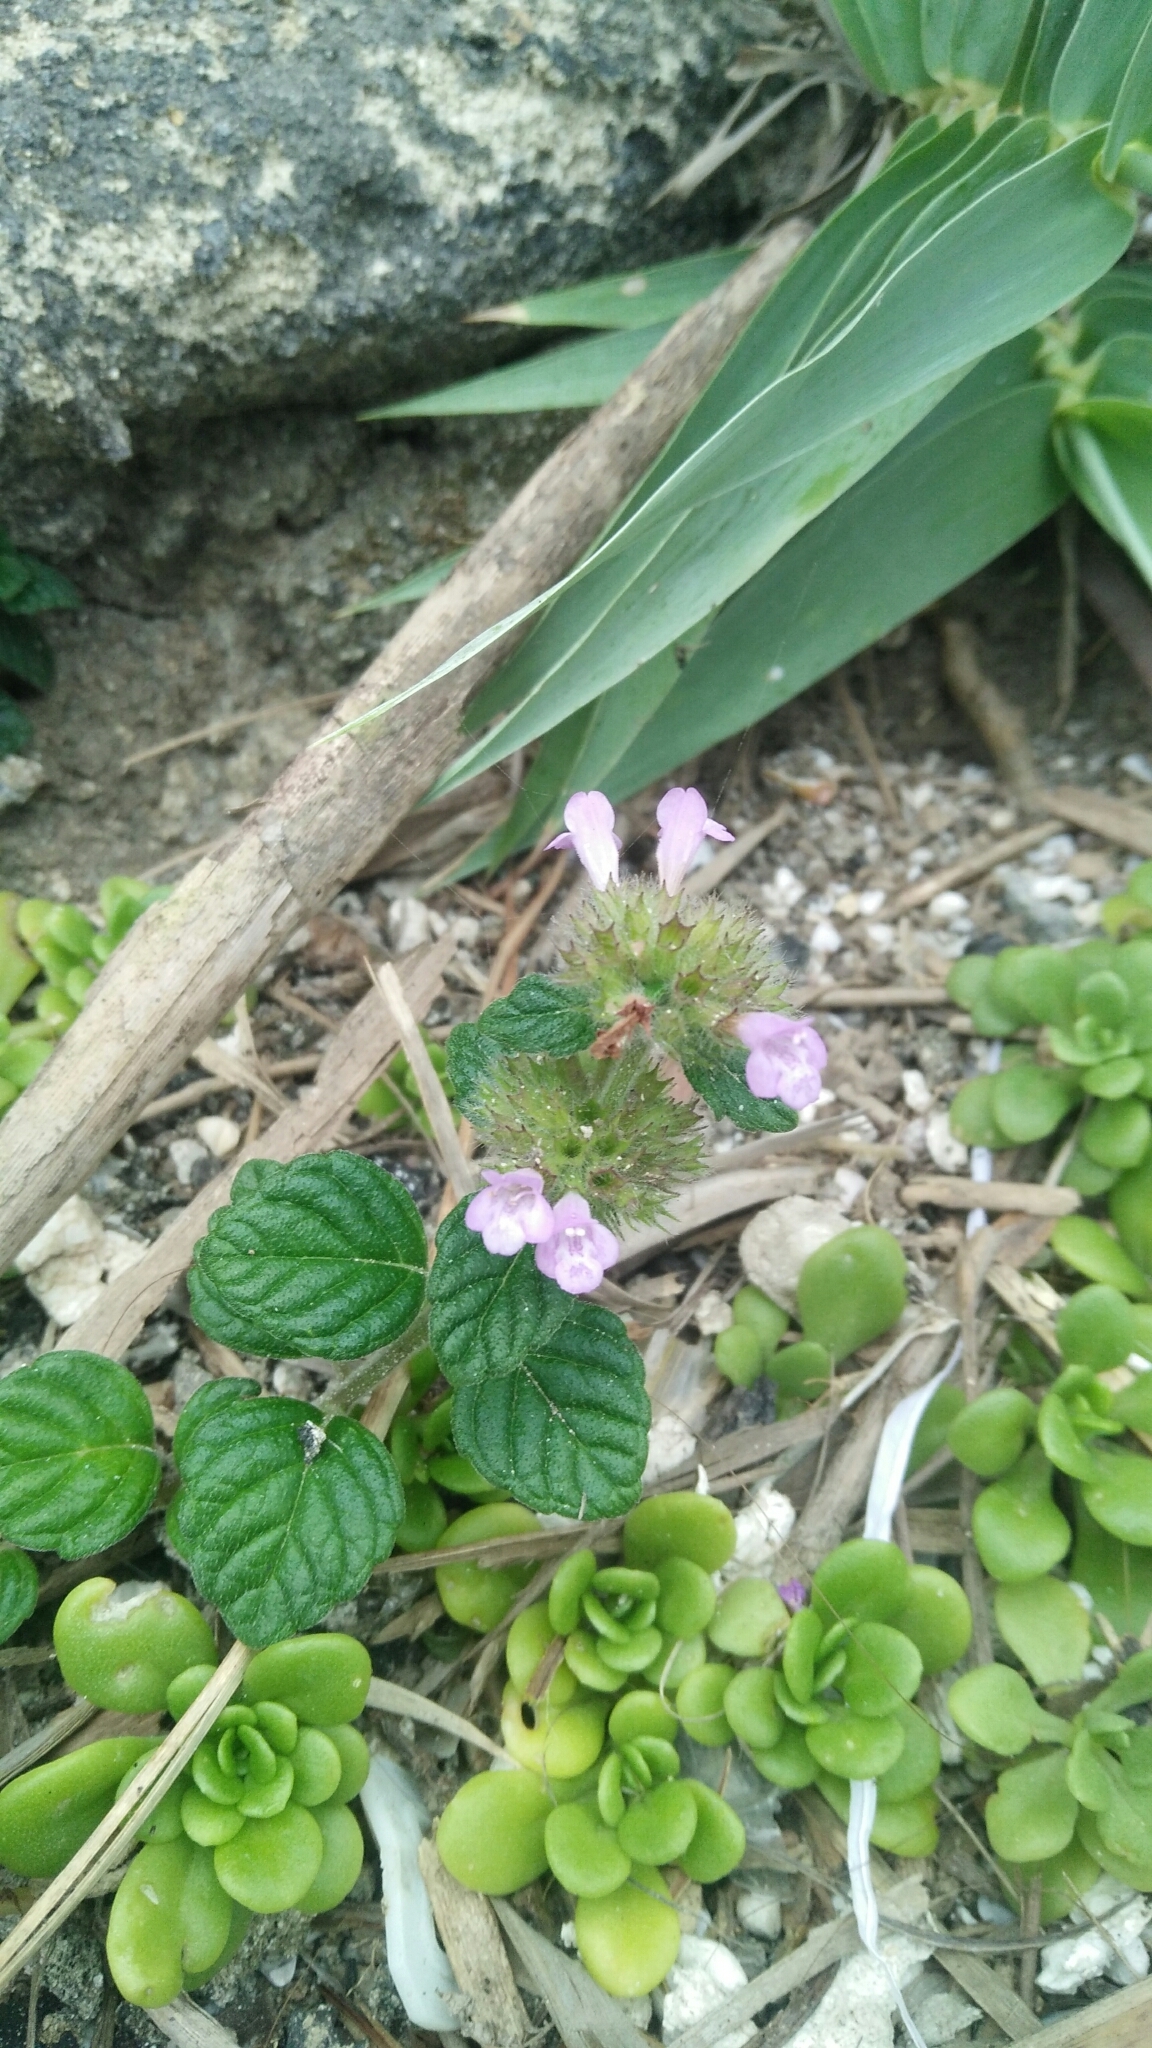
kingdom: Plantae
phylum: Tracheophyta
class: Magnoliopsida
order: Lamiales
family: Lamiaceae
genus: Clinopodium
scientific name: Clinopodium chinense
